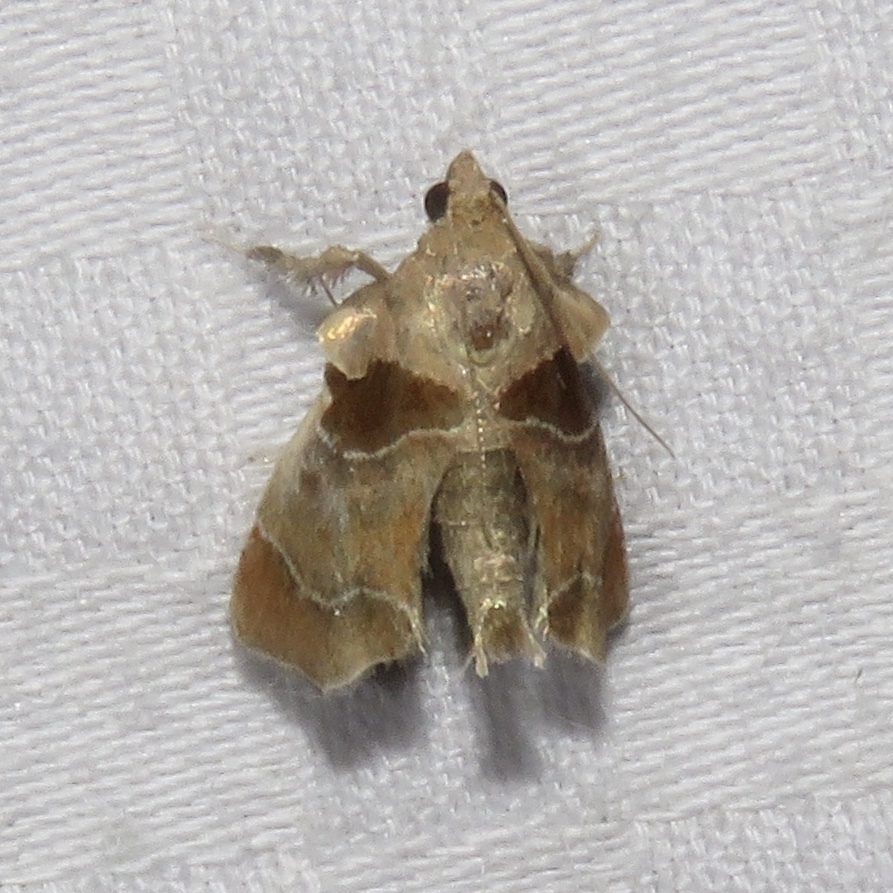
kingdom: Animalia
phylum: Arthropoda
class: Insecta
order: Lepidoptera
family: Pyralidae
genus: Tosale
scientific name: Tosale oviplagalis
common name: Dimorphic tosale moth
